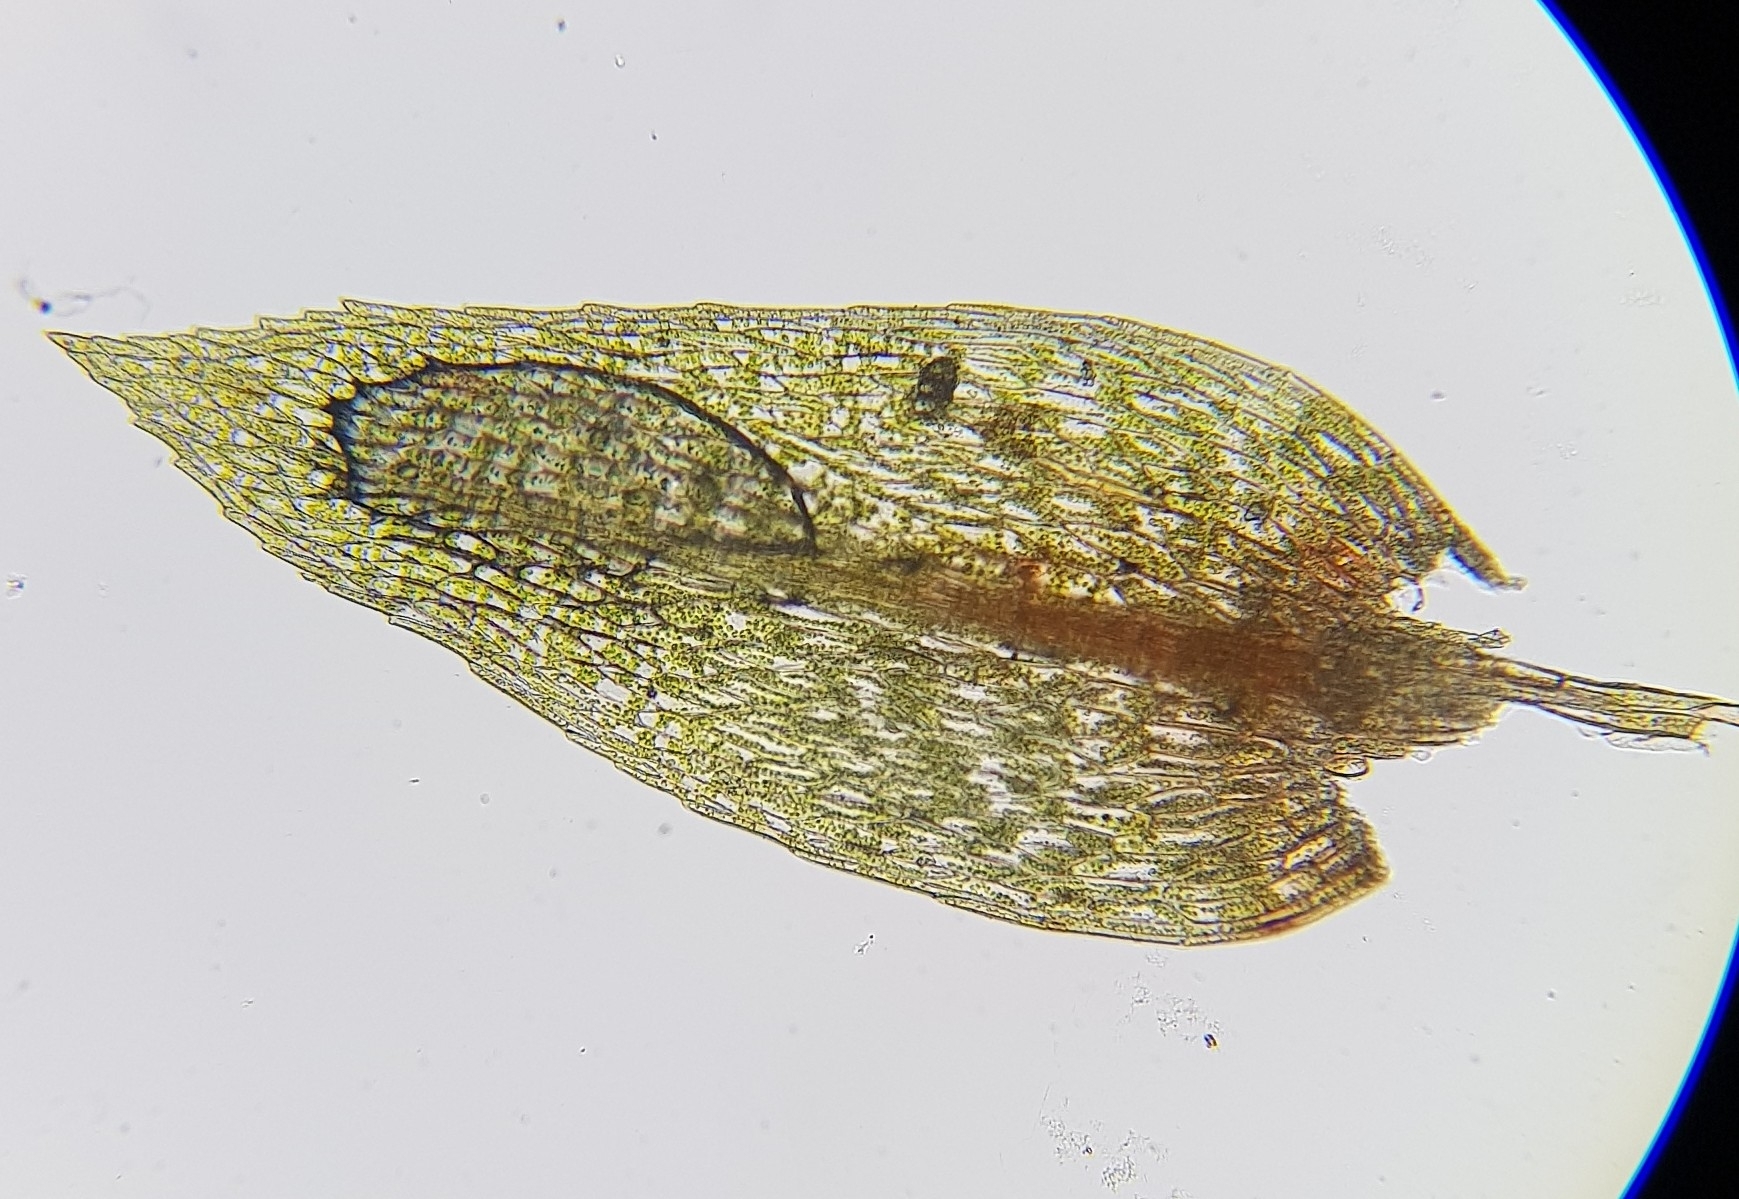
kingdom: Plantae
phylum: Bryophyta
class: Bryopsida
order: Bryales
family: Mniaceae
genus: Pohlia
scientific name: Pohlia wahlenbergii
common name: Wahlenberg's nodding moss
